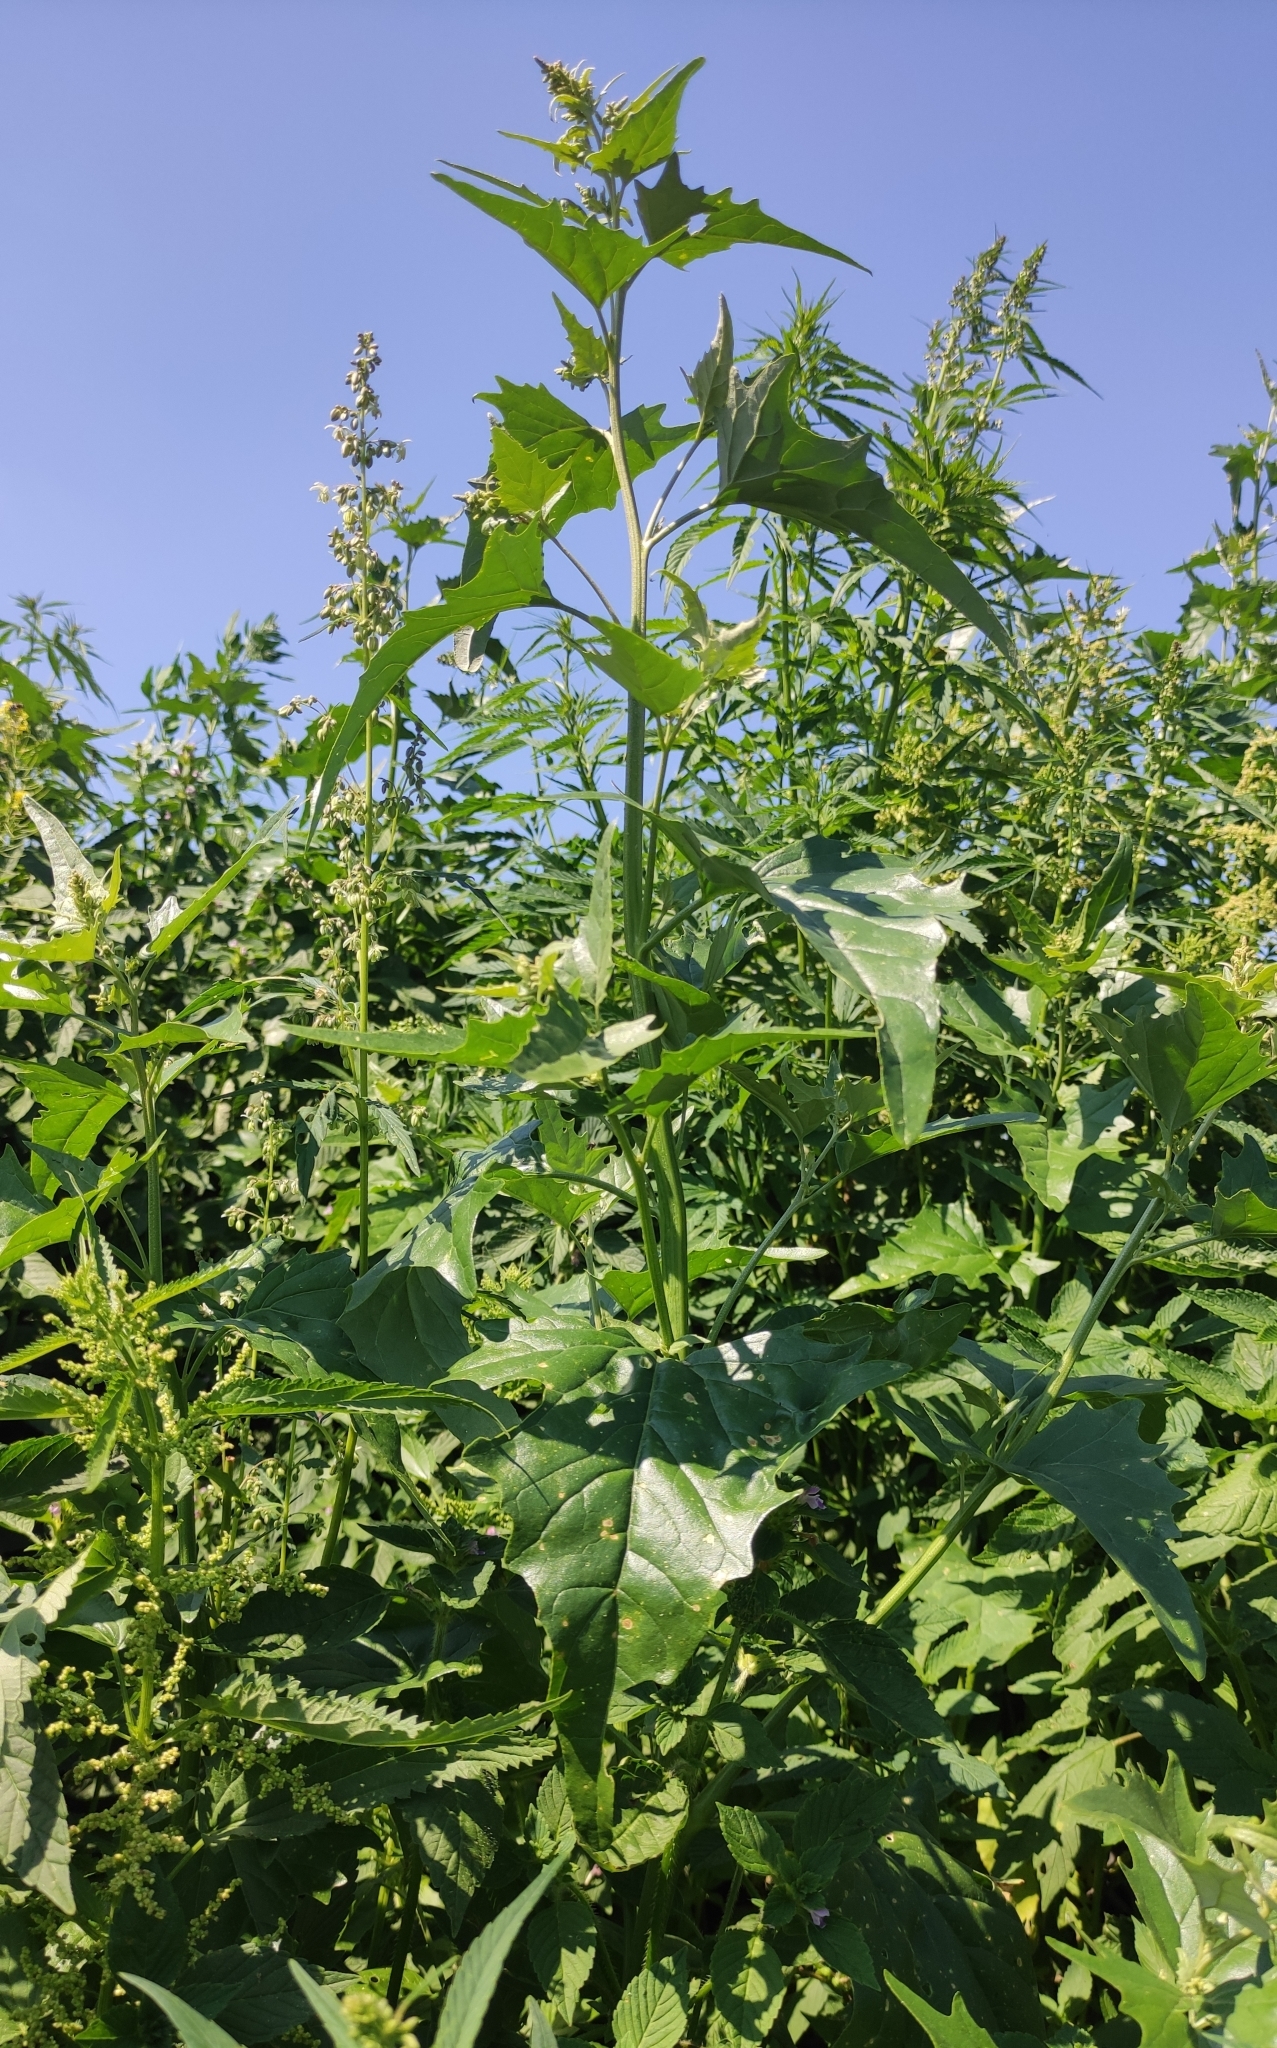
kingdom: Plantae
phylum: Tracheophyta
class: Magnoliopsida
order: Caryophyllales
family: Amaranthaceae
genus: Atriplex
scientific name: Atriplex sagittata
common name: Purple orache
